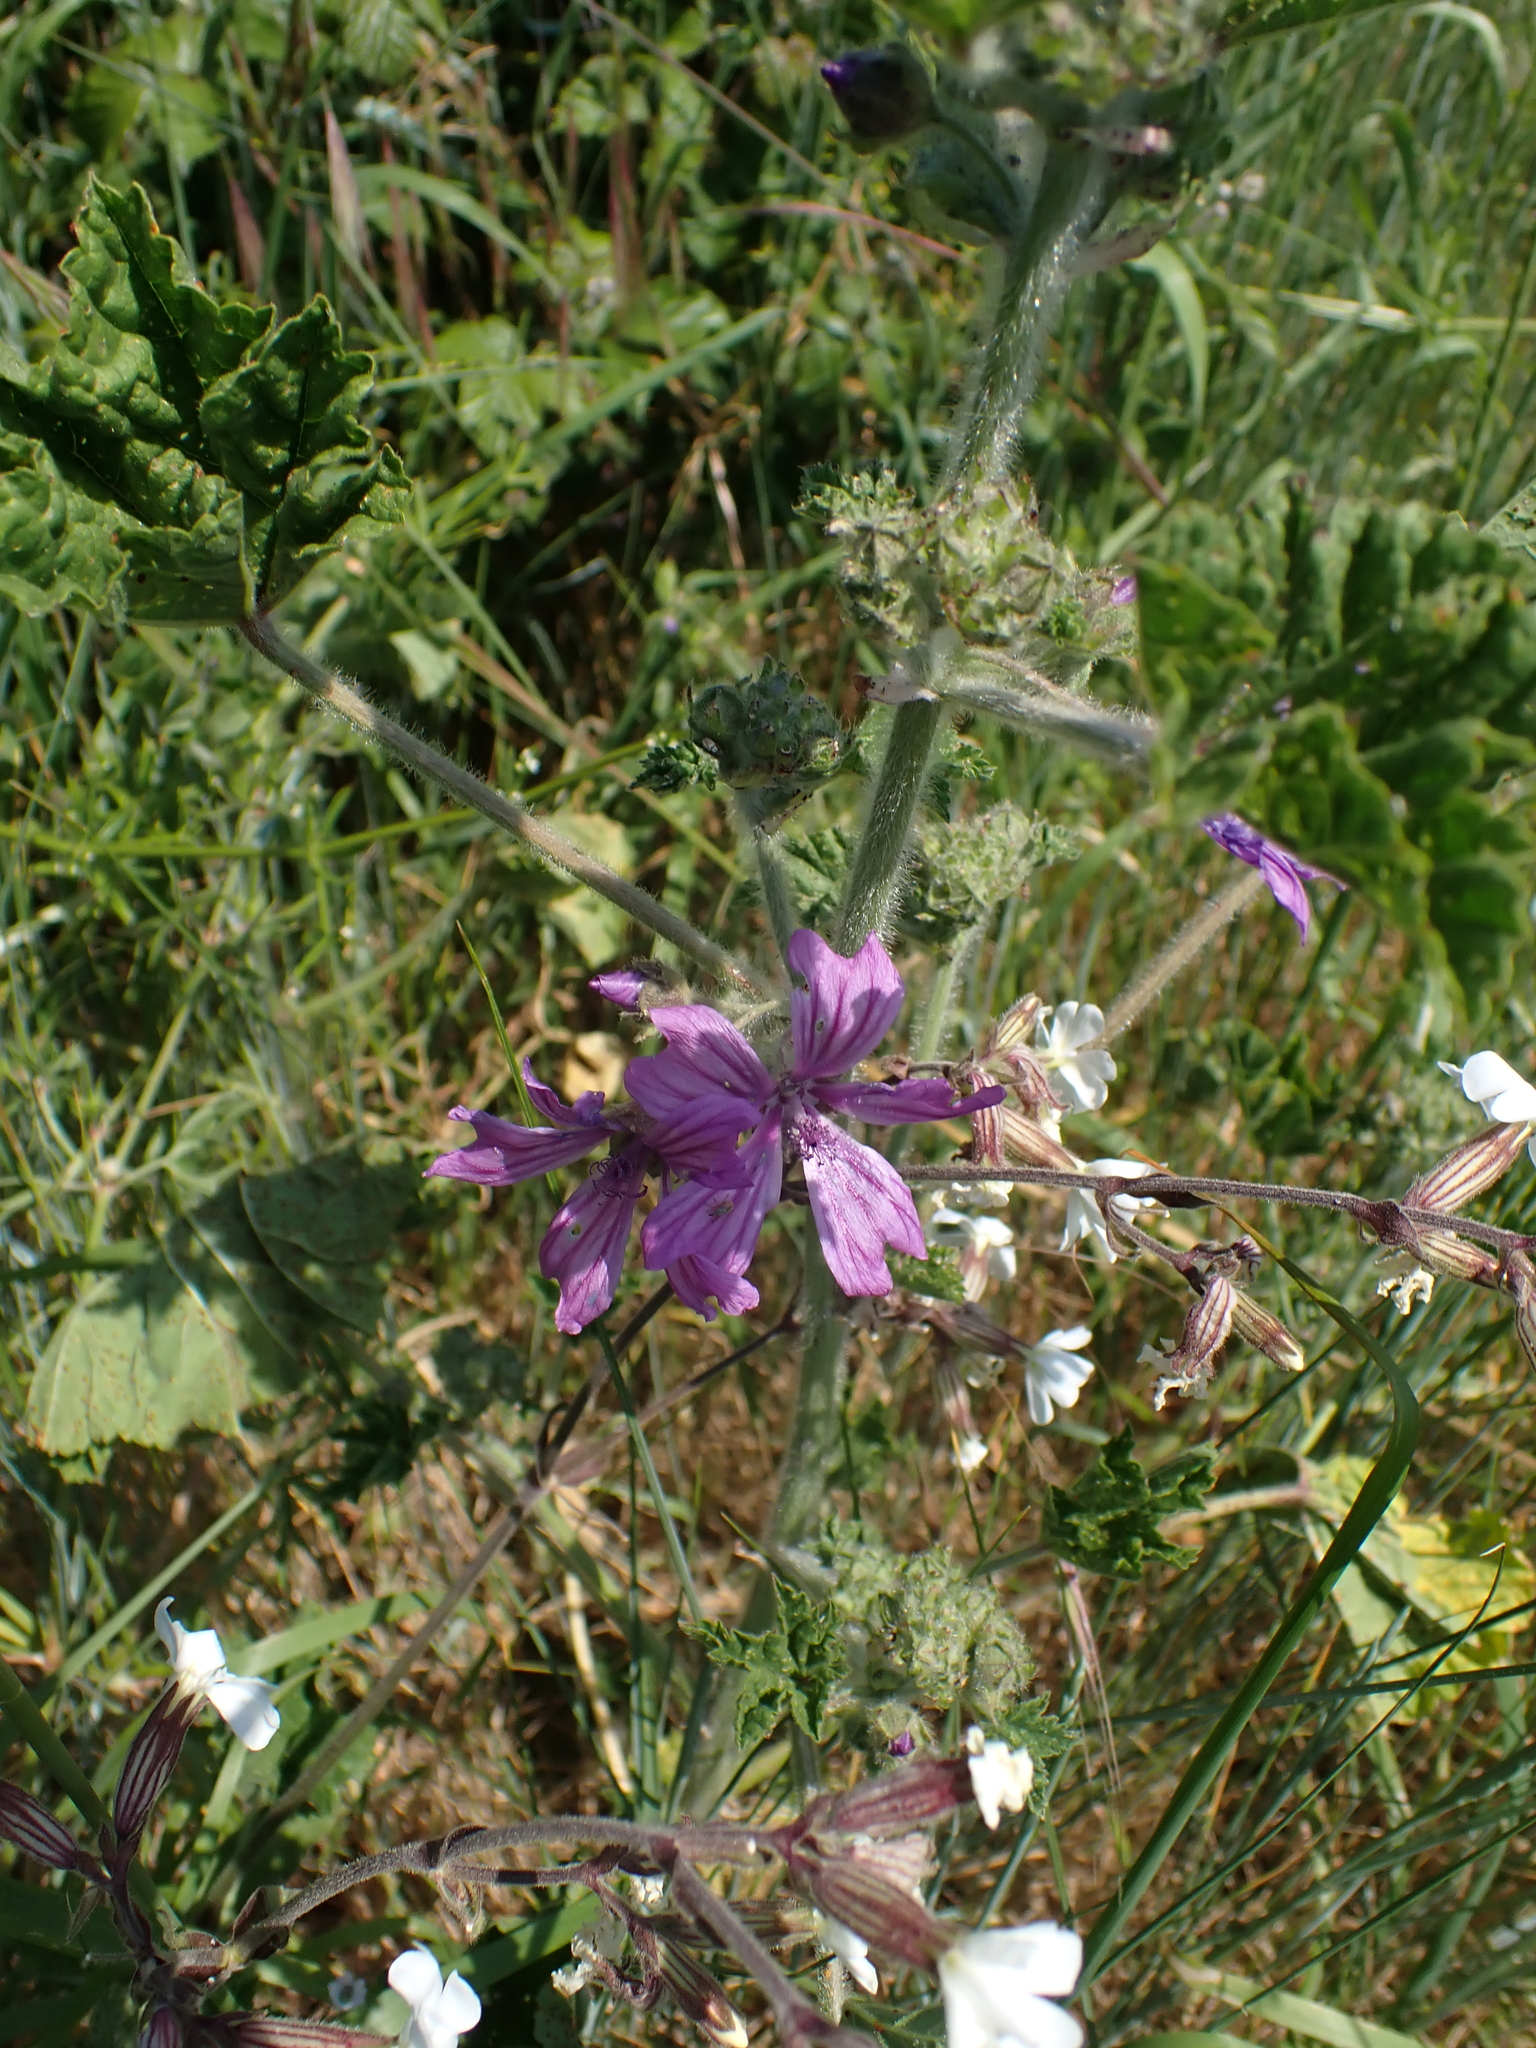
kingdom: Plantae
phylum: Tracheophyta
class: Magnoliopsida
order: Malvales
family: Malvaceae
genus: Malva
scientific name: Malva sylvestris
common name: Common mallow
